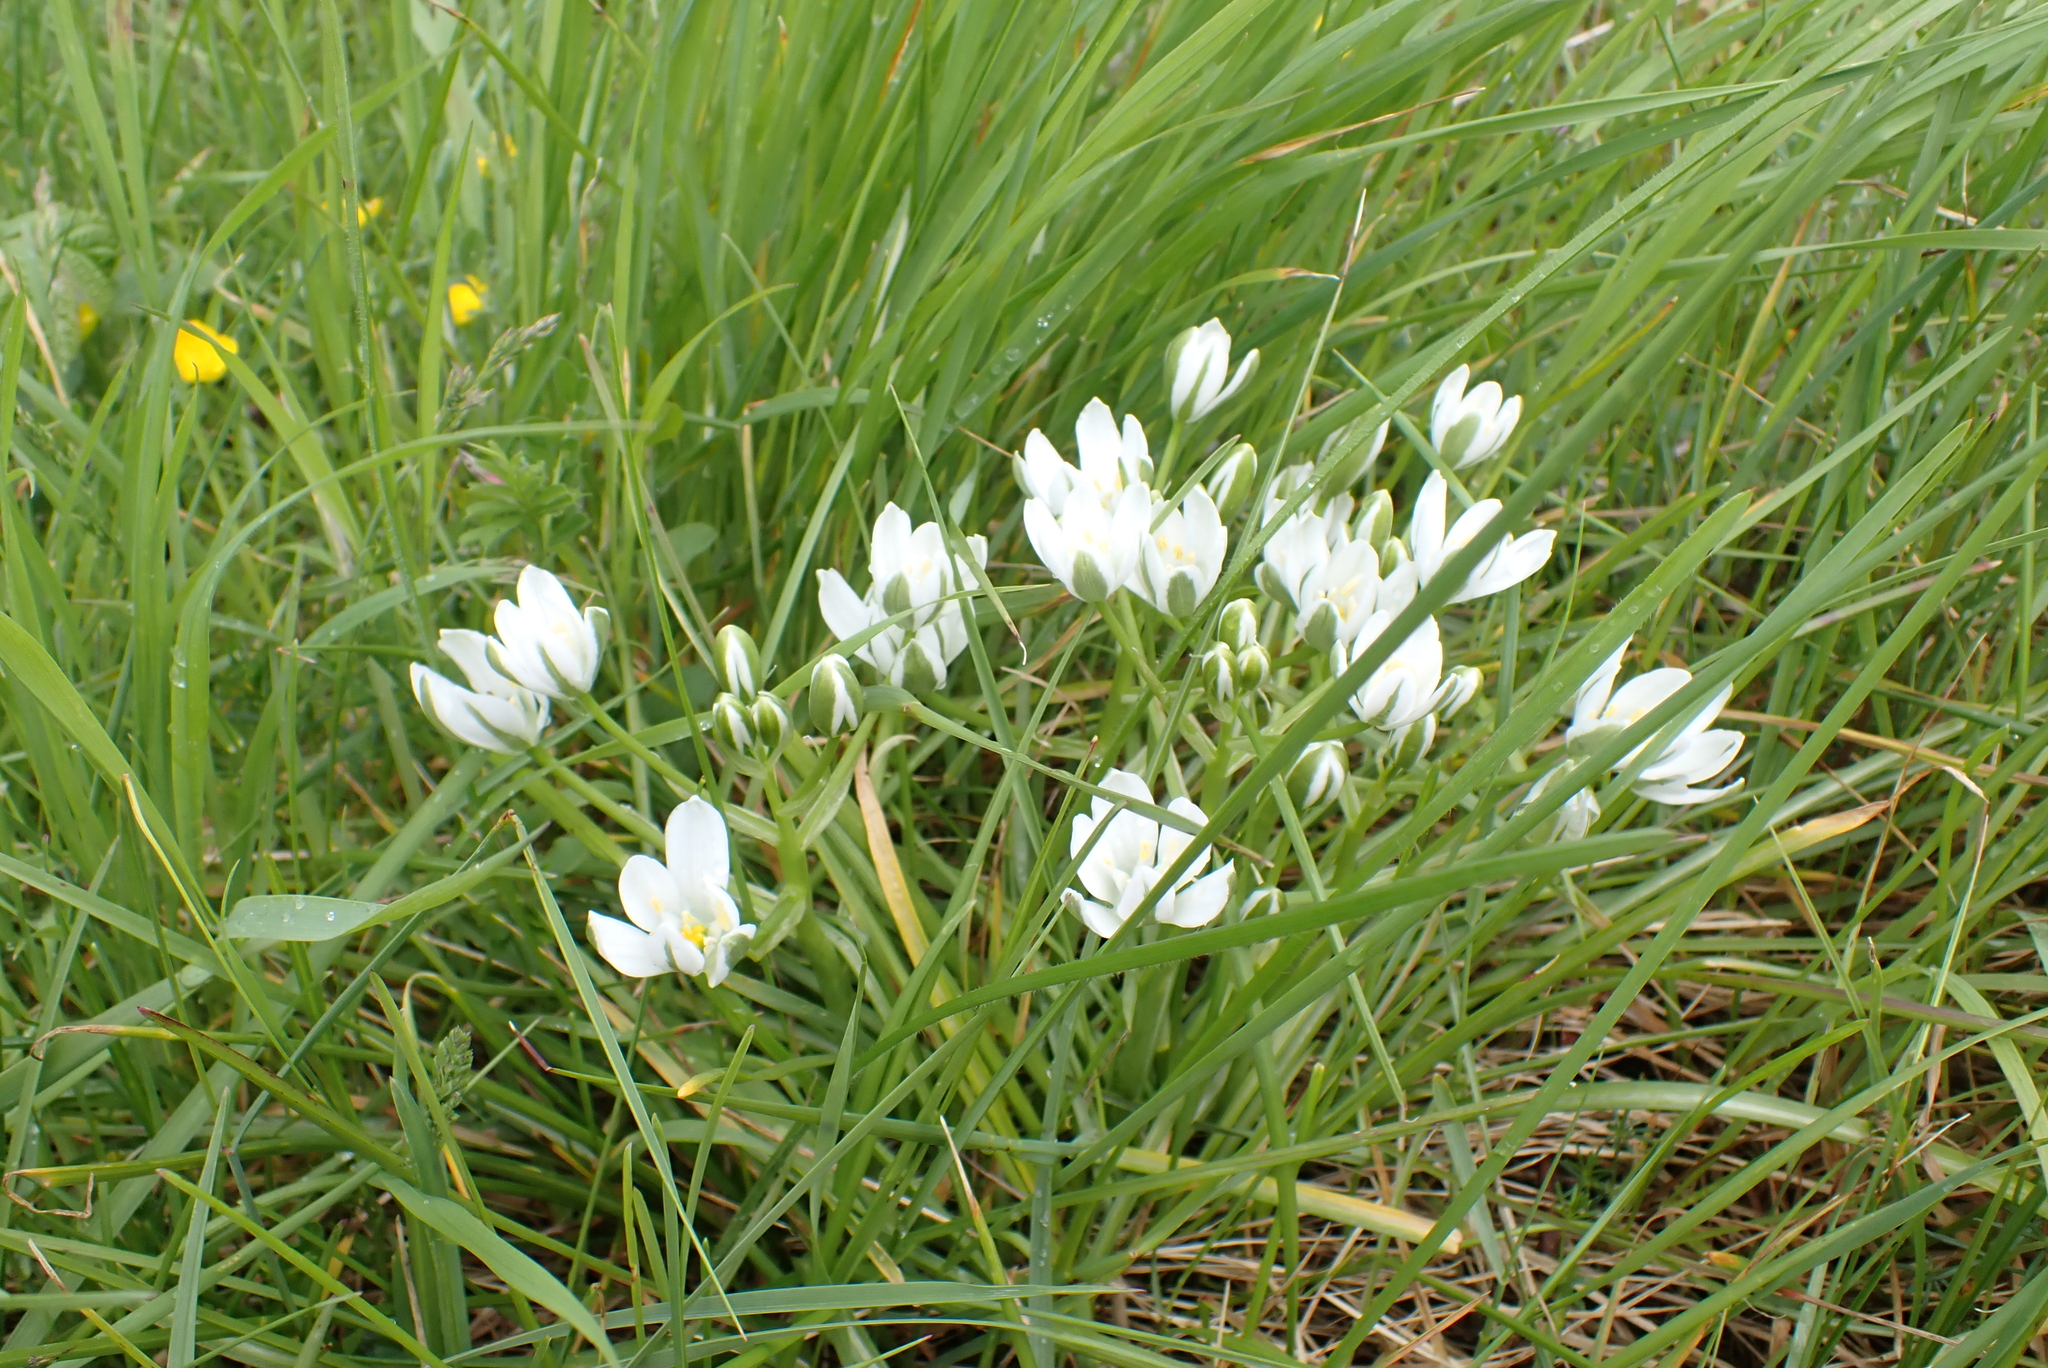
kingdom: Plantae
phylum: Tracheophyta
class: Liliopsida
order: Asparagales
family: Asparagaceae
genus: Ornithogalum
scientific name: Ornithogalum umbellatum
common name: Garden star-of-bethlehem
